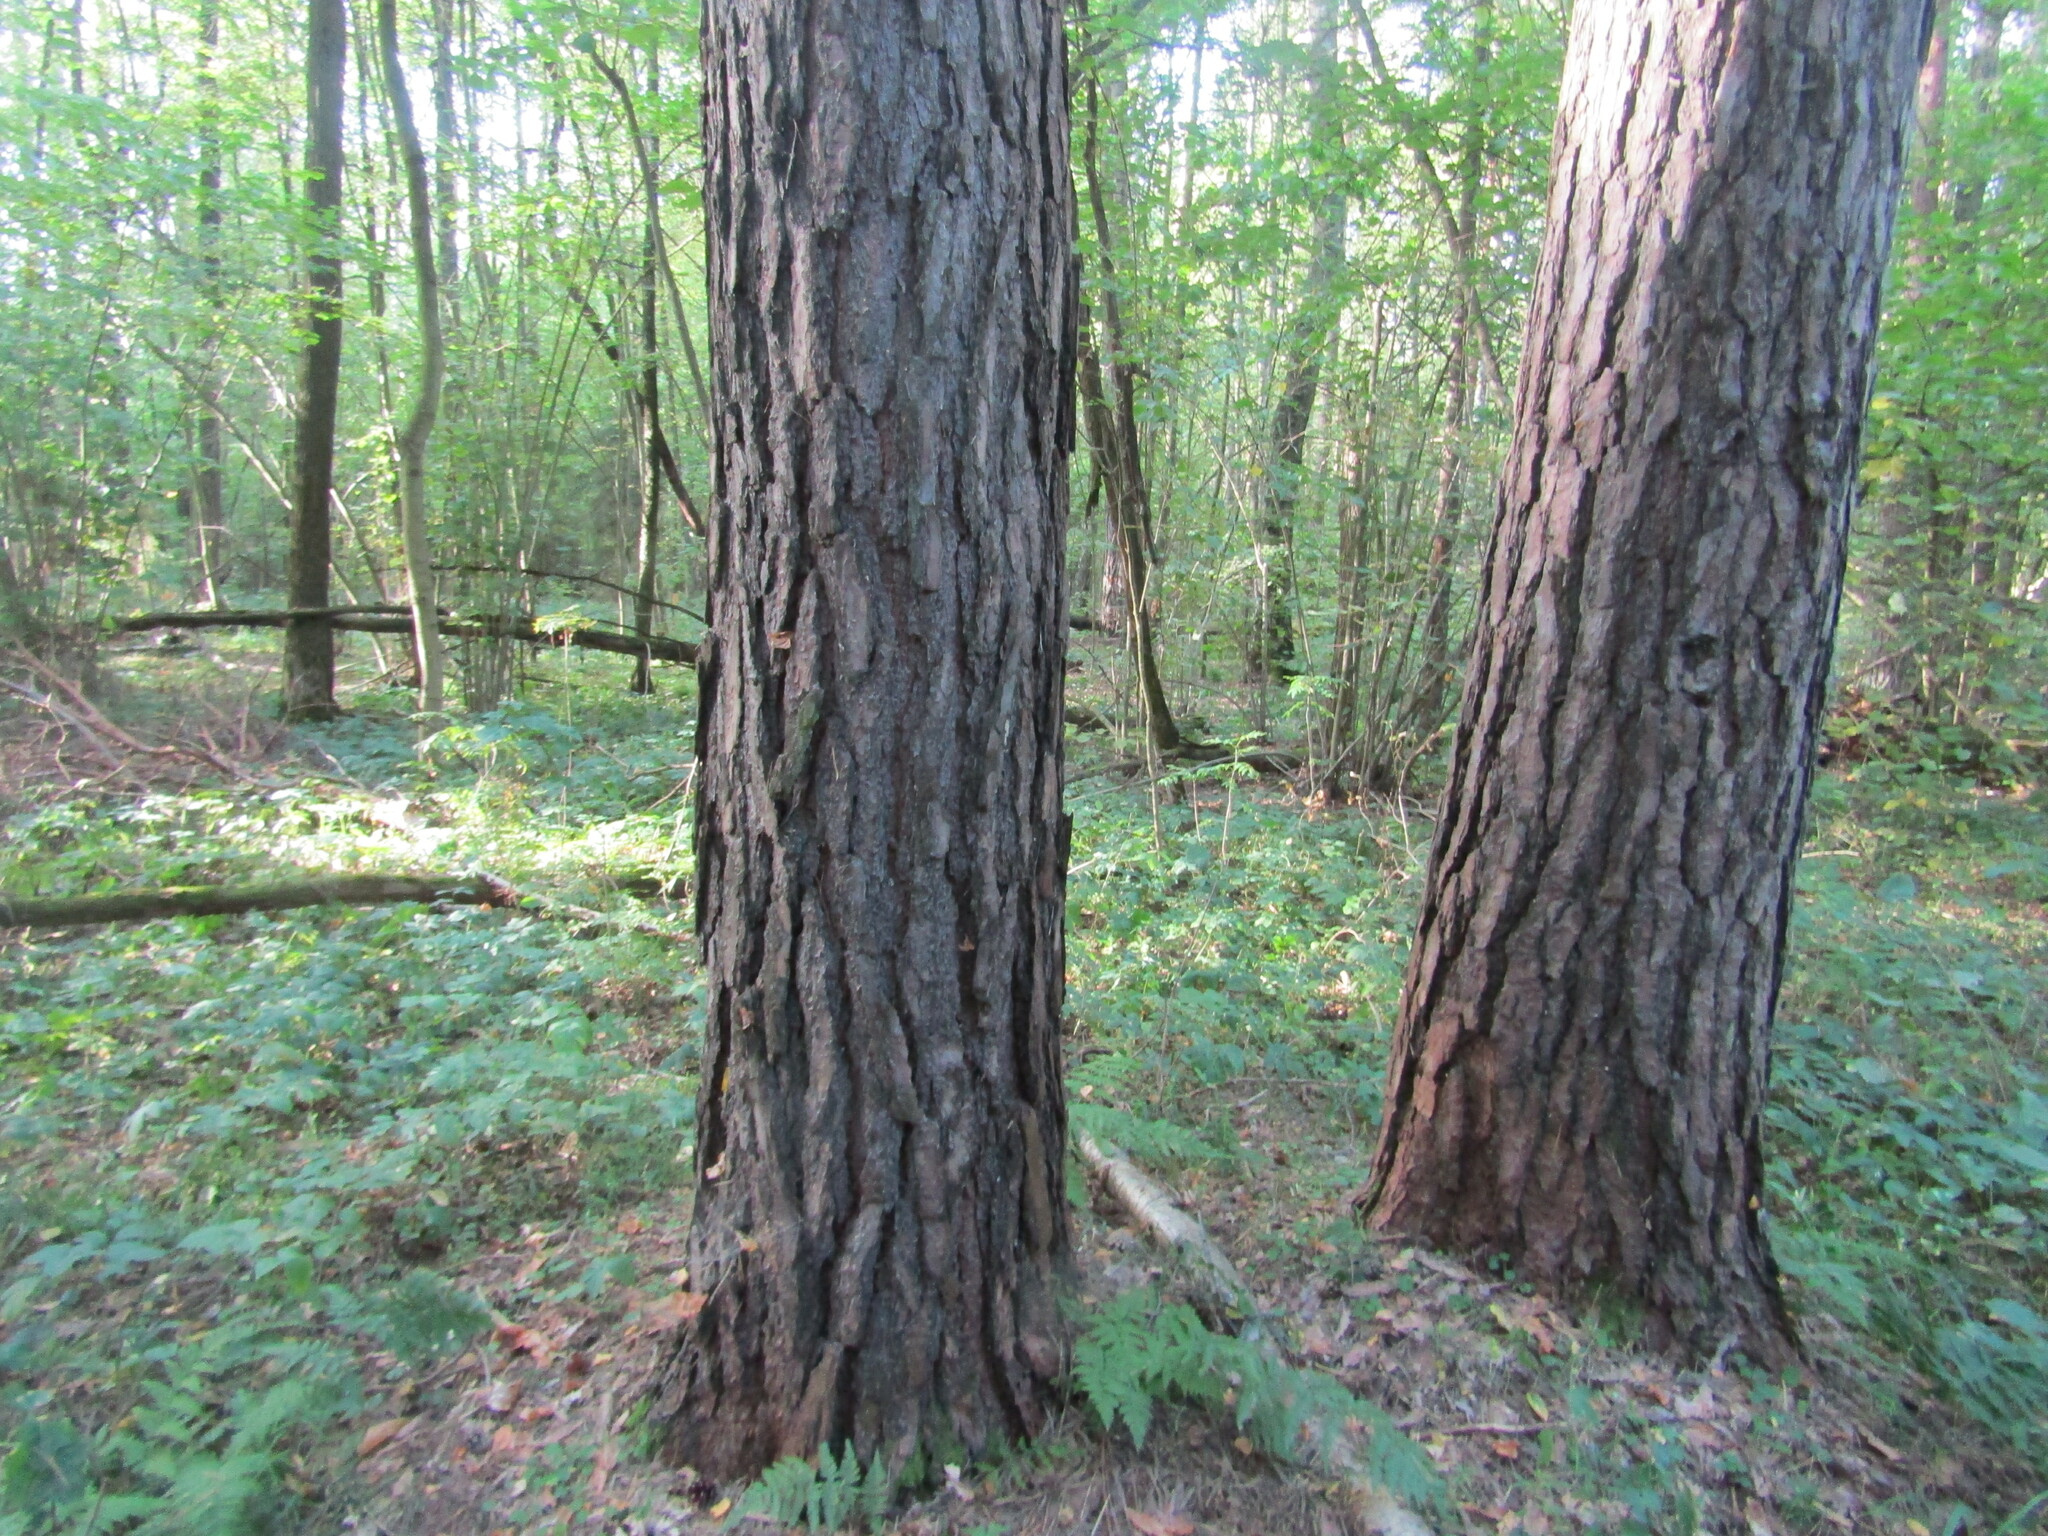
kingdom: Plantae
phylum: Tracheophyta
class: Pinopsida
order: Pinales
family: Pinaceae
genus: Pinus
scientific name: Pinus sylvestris
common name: Scots pine
